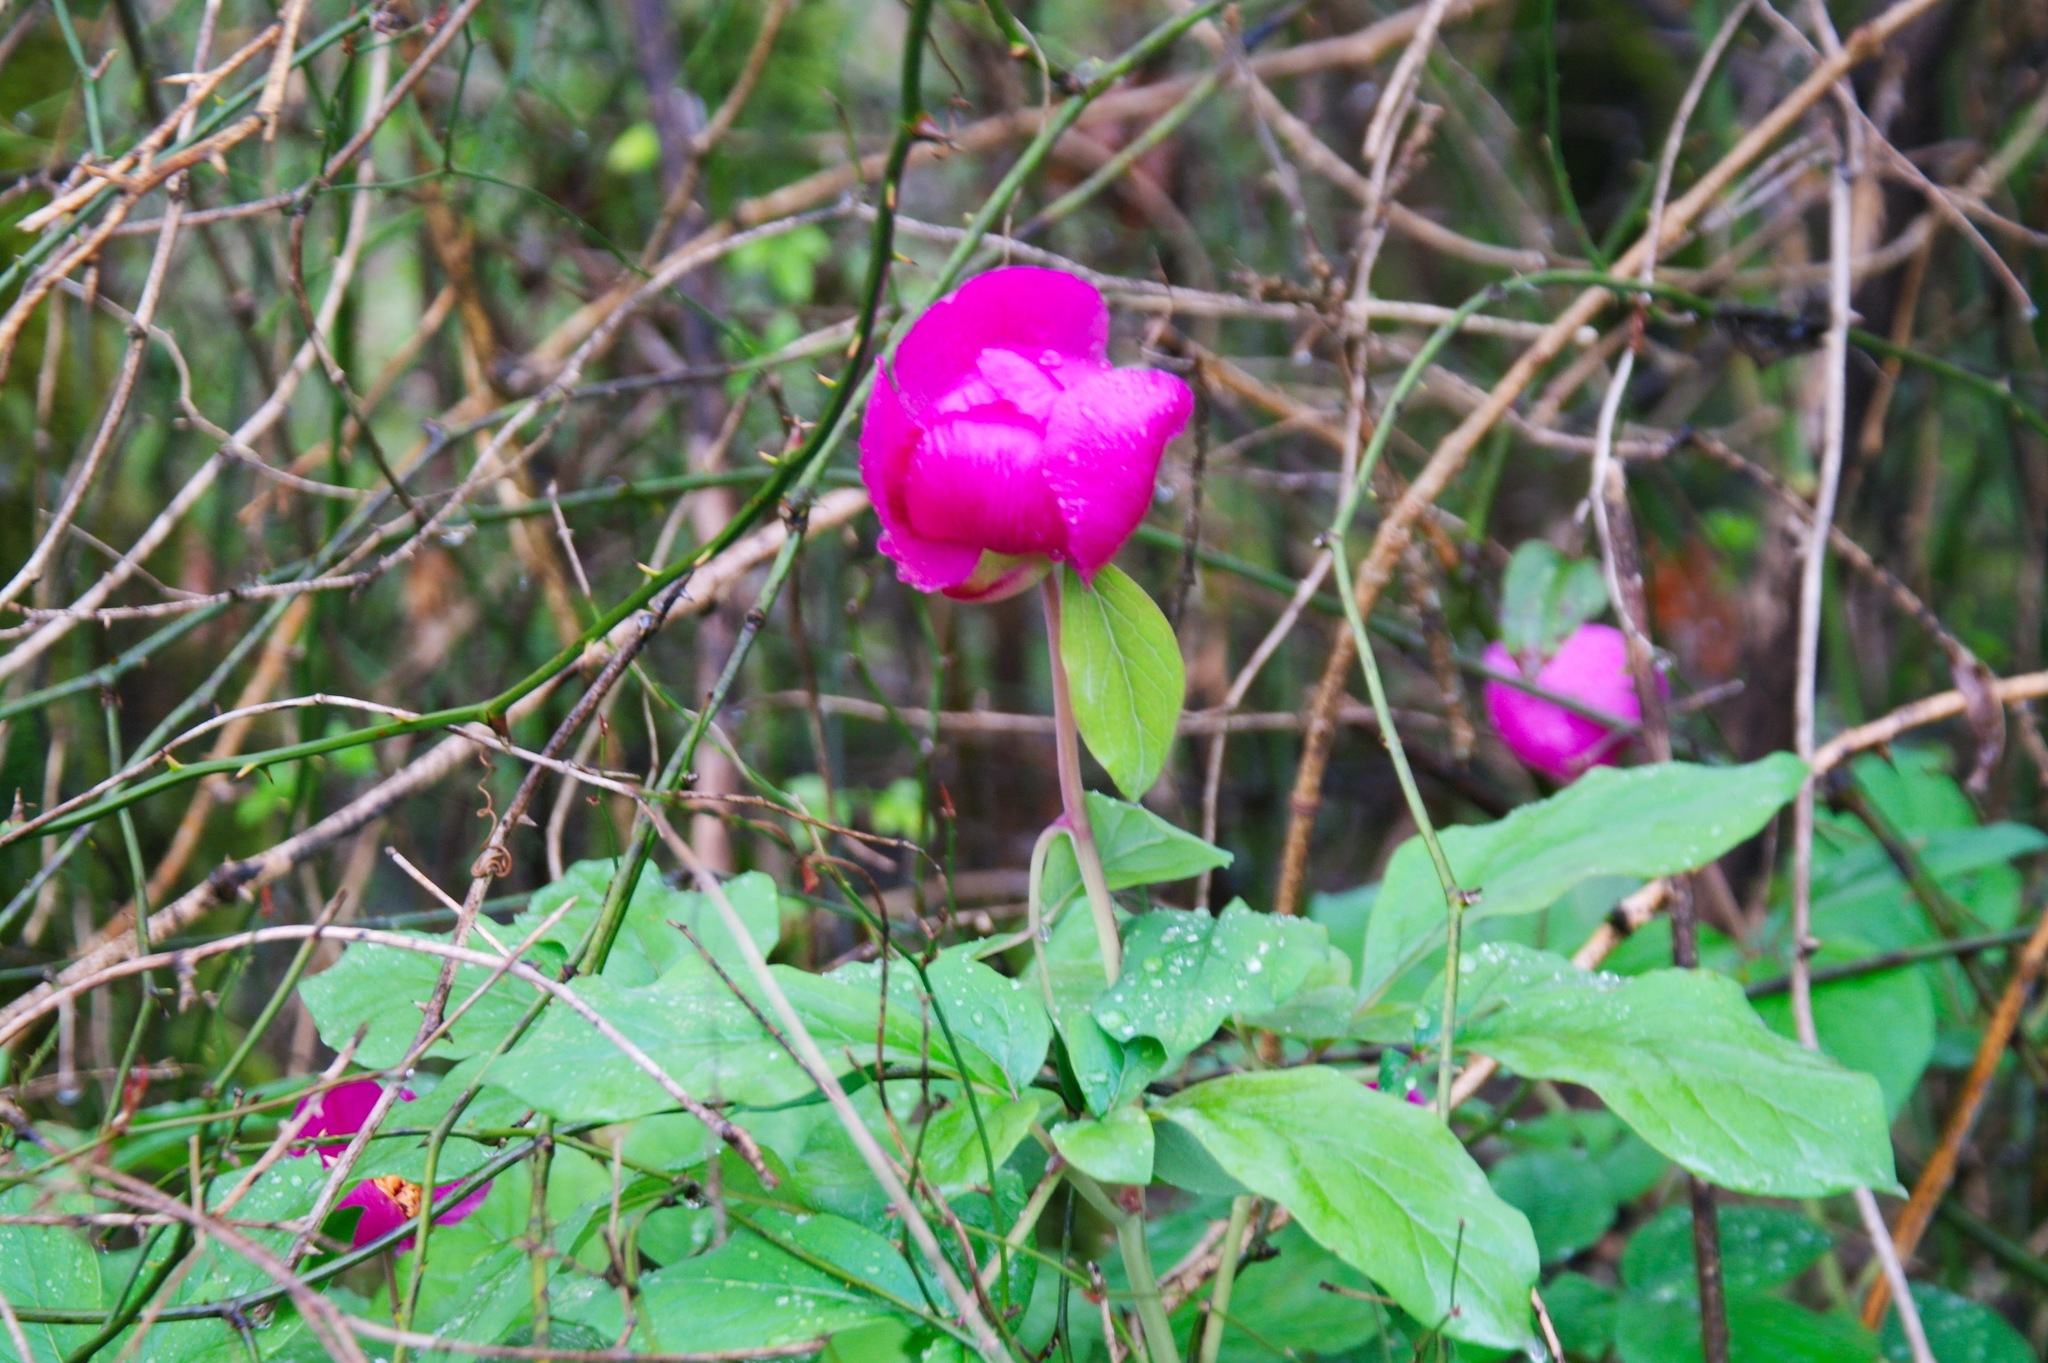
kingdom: Plantae
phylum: Tracheophyta
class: Magnoliopsida
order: Saxifragales
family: Paeoniaceae
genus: Paeonia
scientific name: Paeonia caucasica
